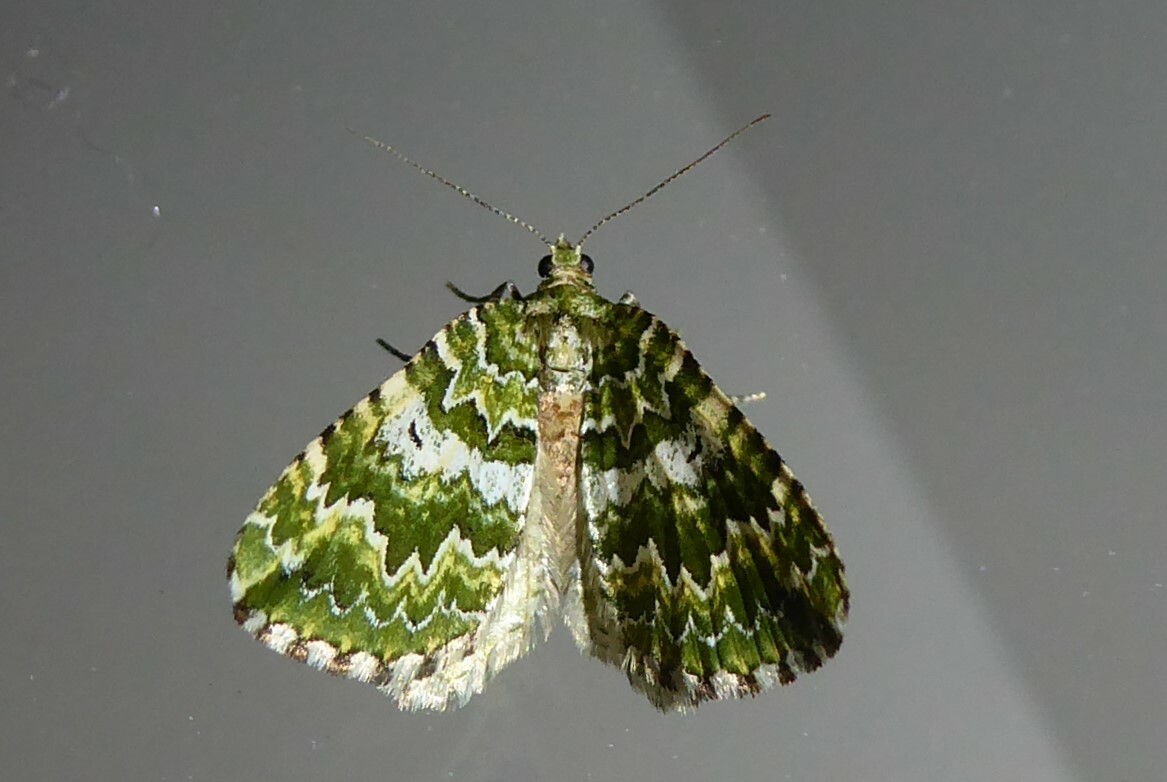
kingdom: Animalia
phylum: Arthropoda
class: Insecta
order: Lepidoptera
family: Geometridae
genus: Asaphodes
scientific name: Asaphodes beata
